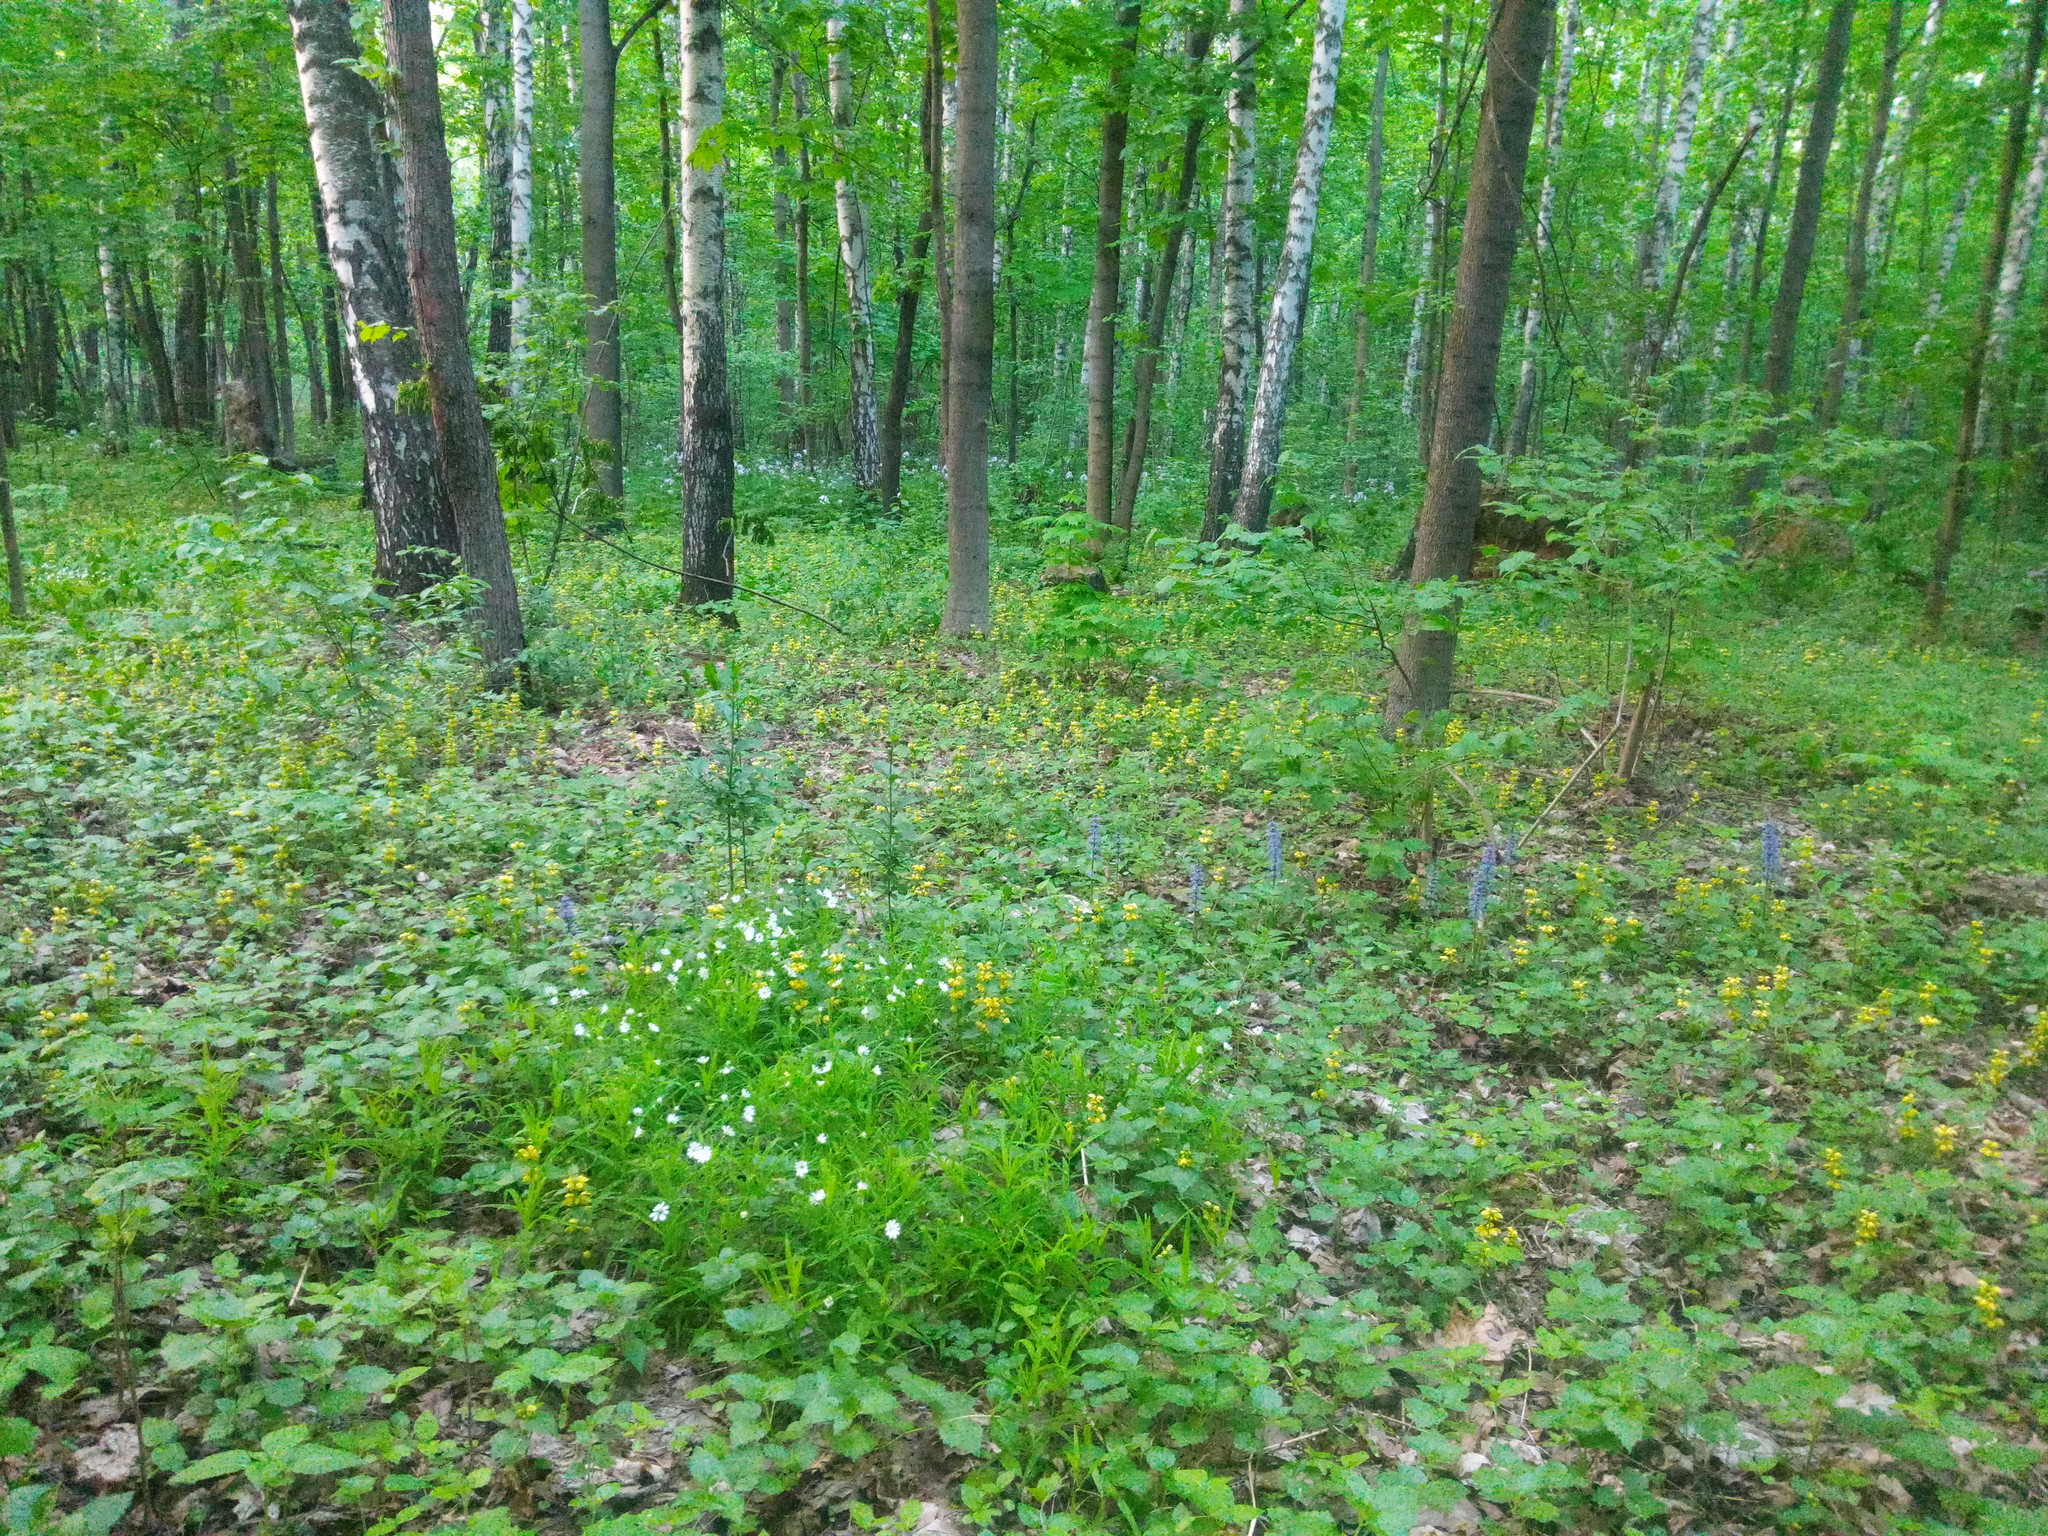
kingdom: Plantae
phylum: Tracheophyta
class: Magnoliopsida
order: Lamiales
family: Lamiaceae
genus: Lamium
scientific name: Lamium galeobdolon
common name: Yellow archangel
